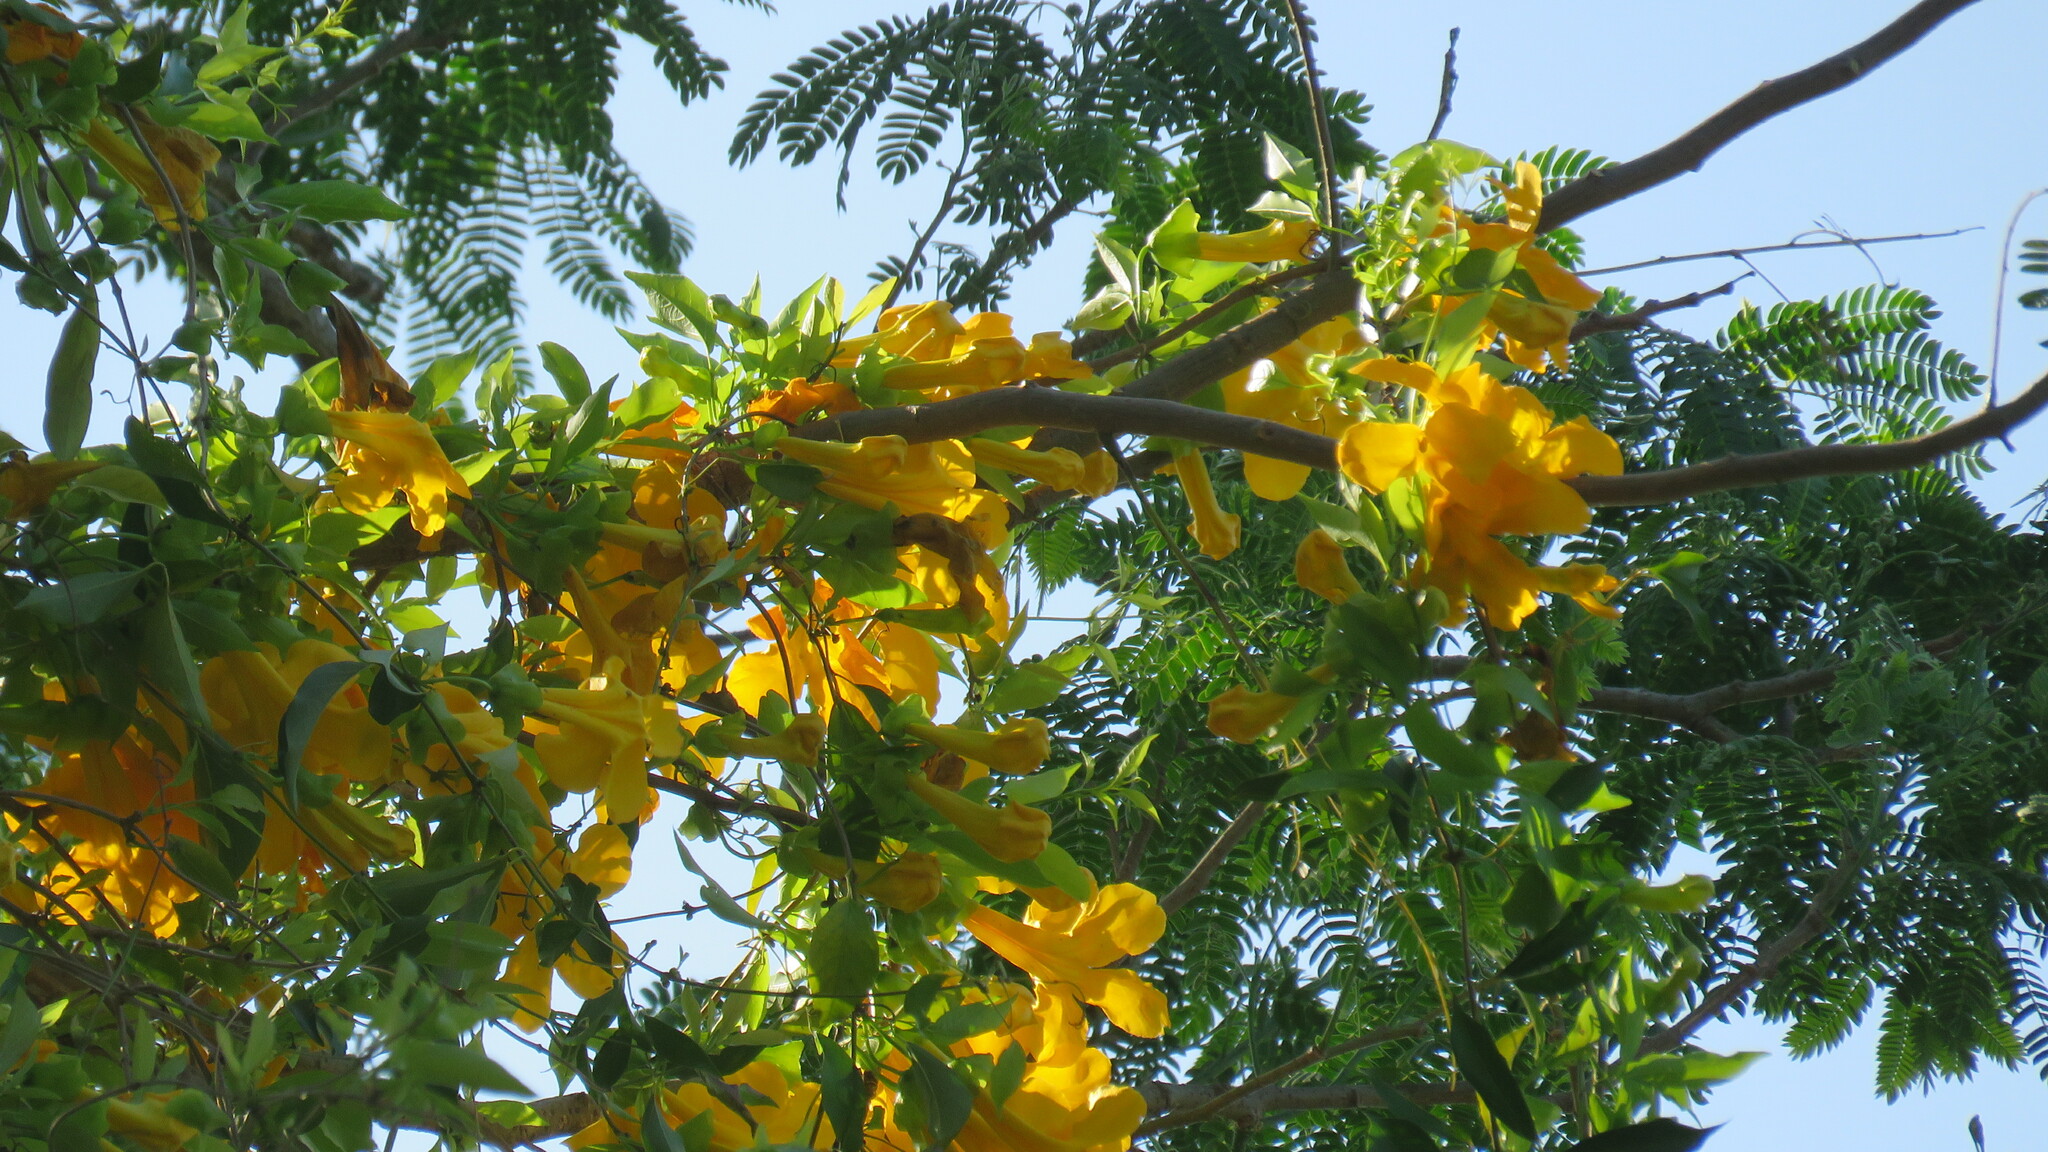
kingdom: Plantae
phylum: Tracheophyta
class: Magnoliopsida
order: Lamiales
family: Bignoniaceae
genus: Dolichandra
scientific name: Dolichandra unguis-cati
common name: Catclaw vine
